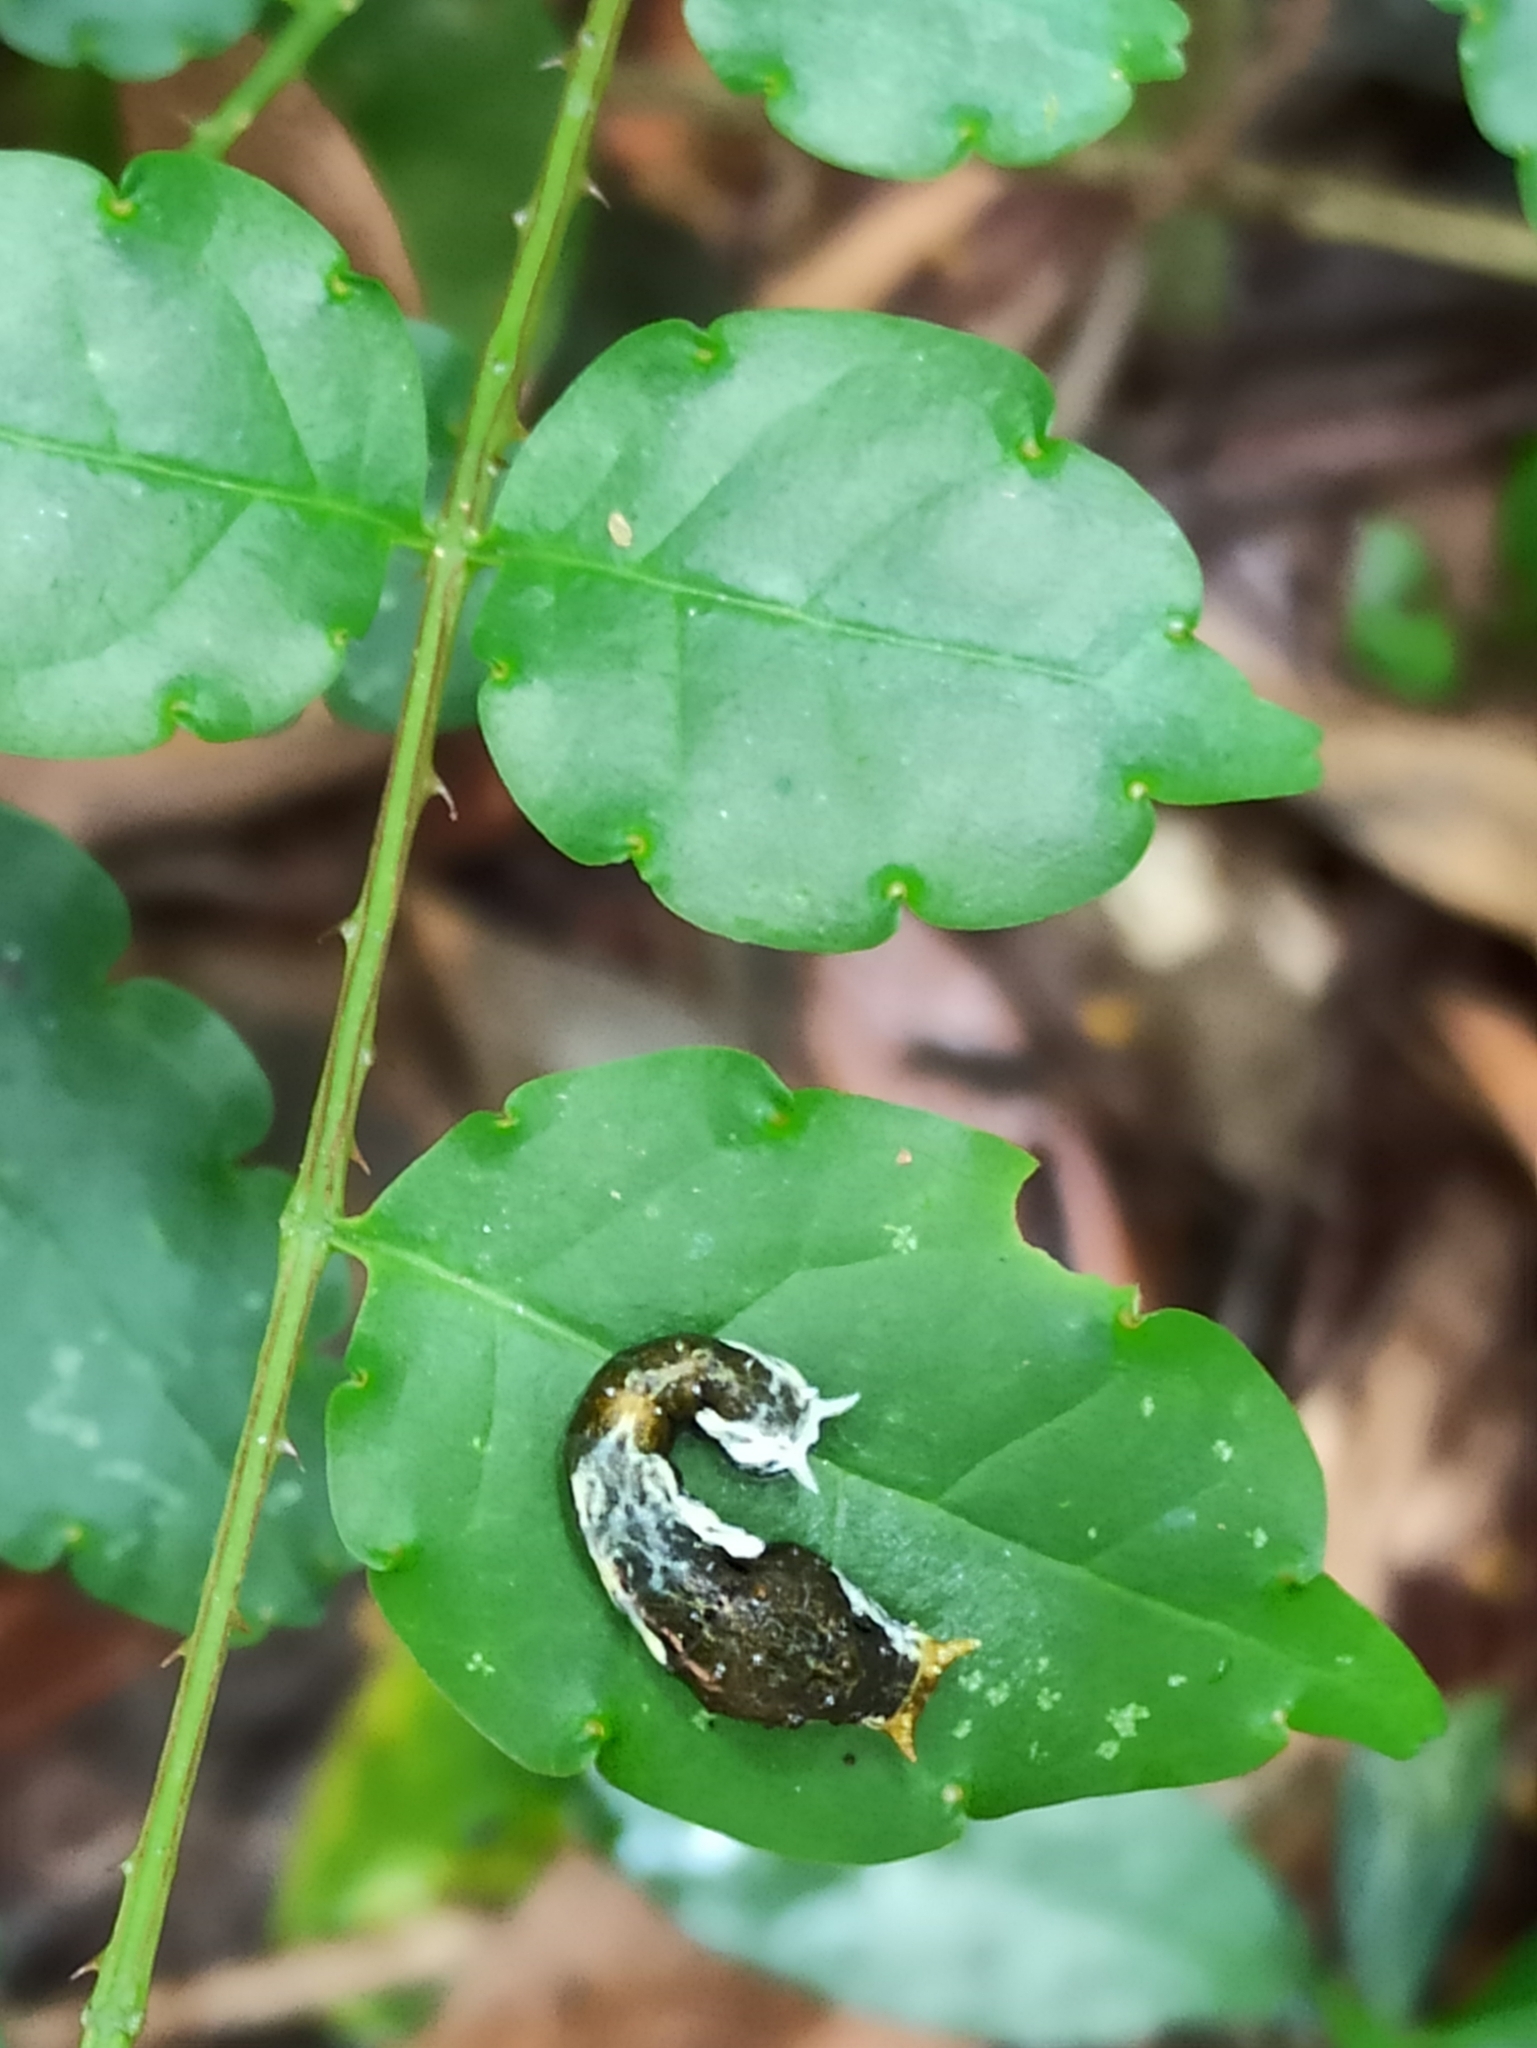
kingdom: Animalia
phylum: Arthropoda
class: Insecta
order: Lepidoptera
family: Papilionidae
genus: Papilio
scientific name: Papilio polytes
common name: Common mormon
